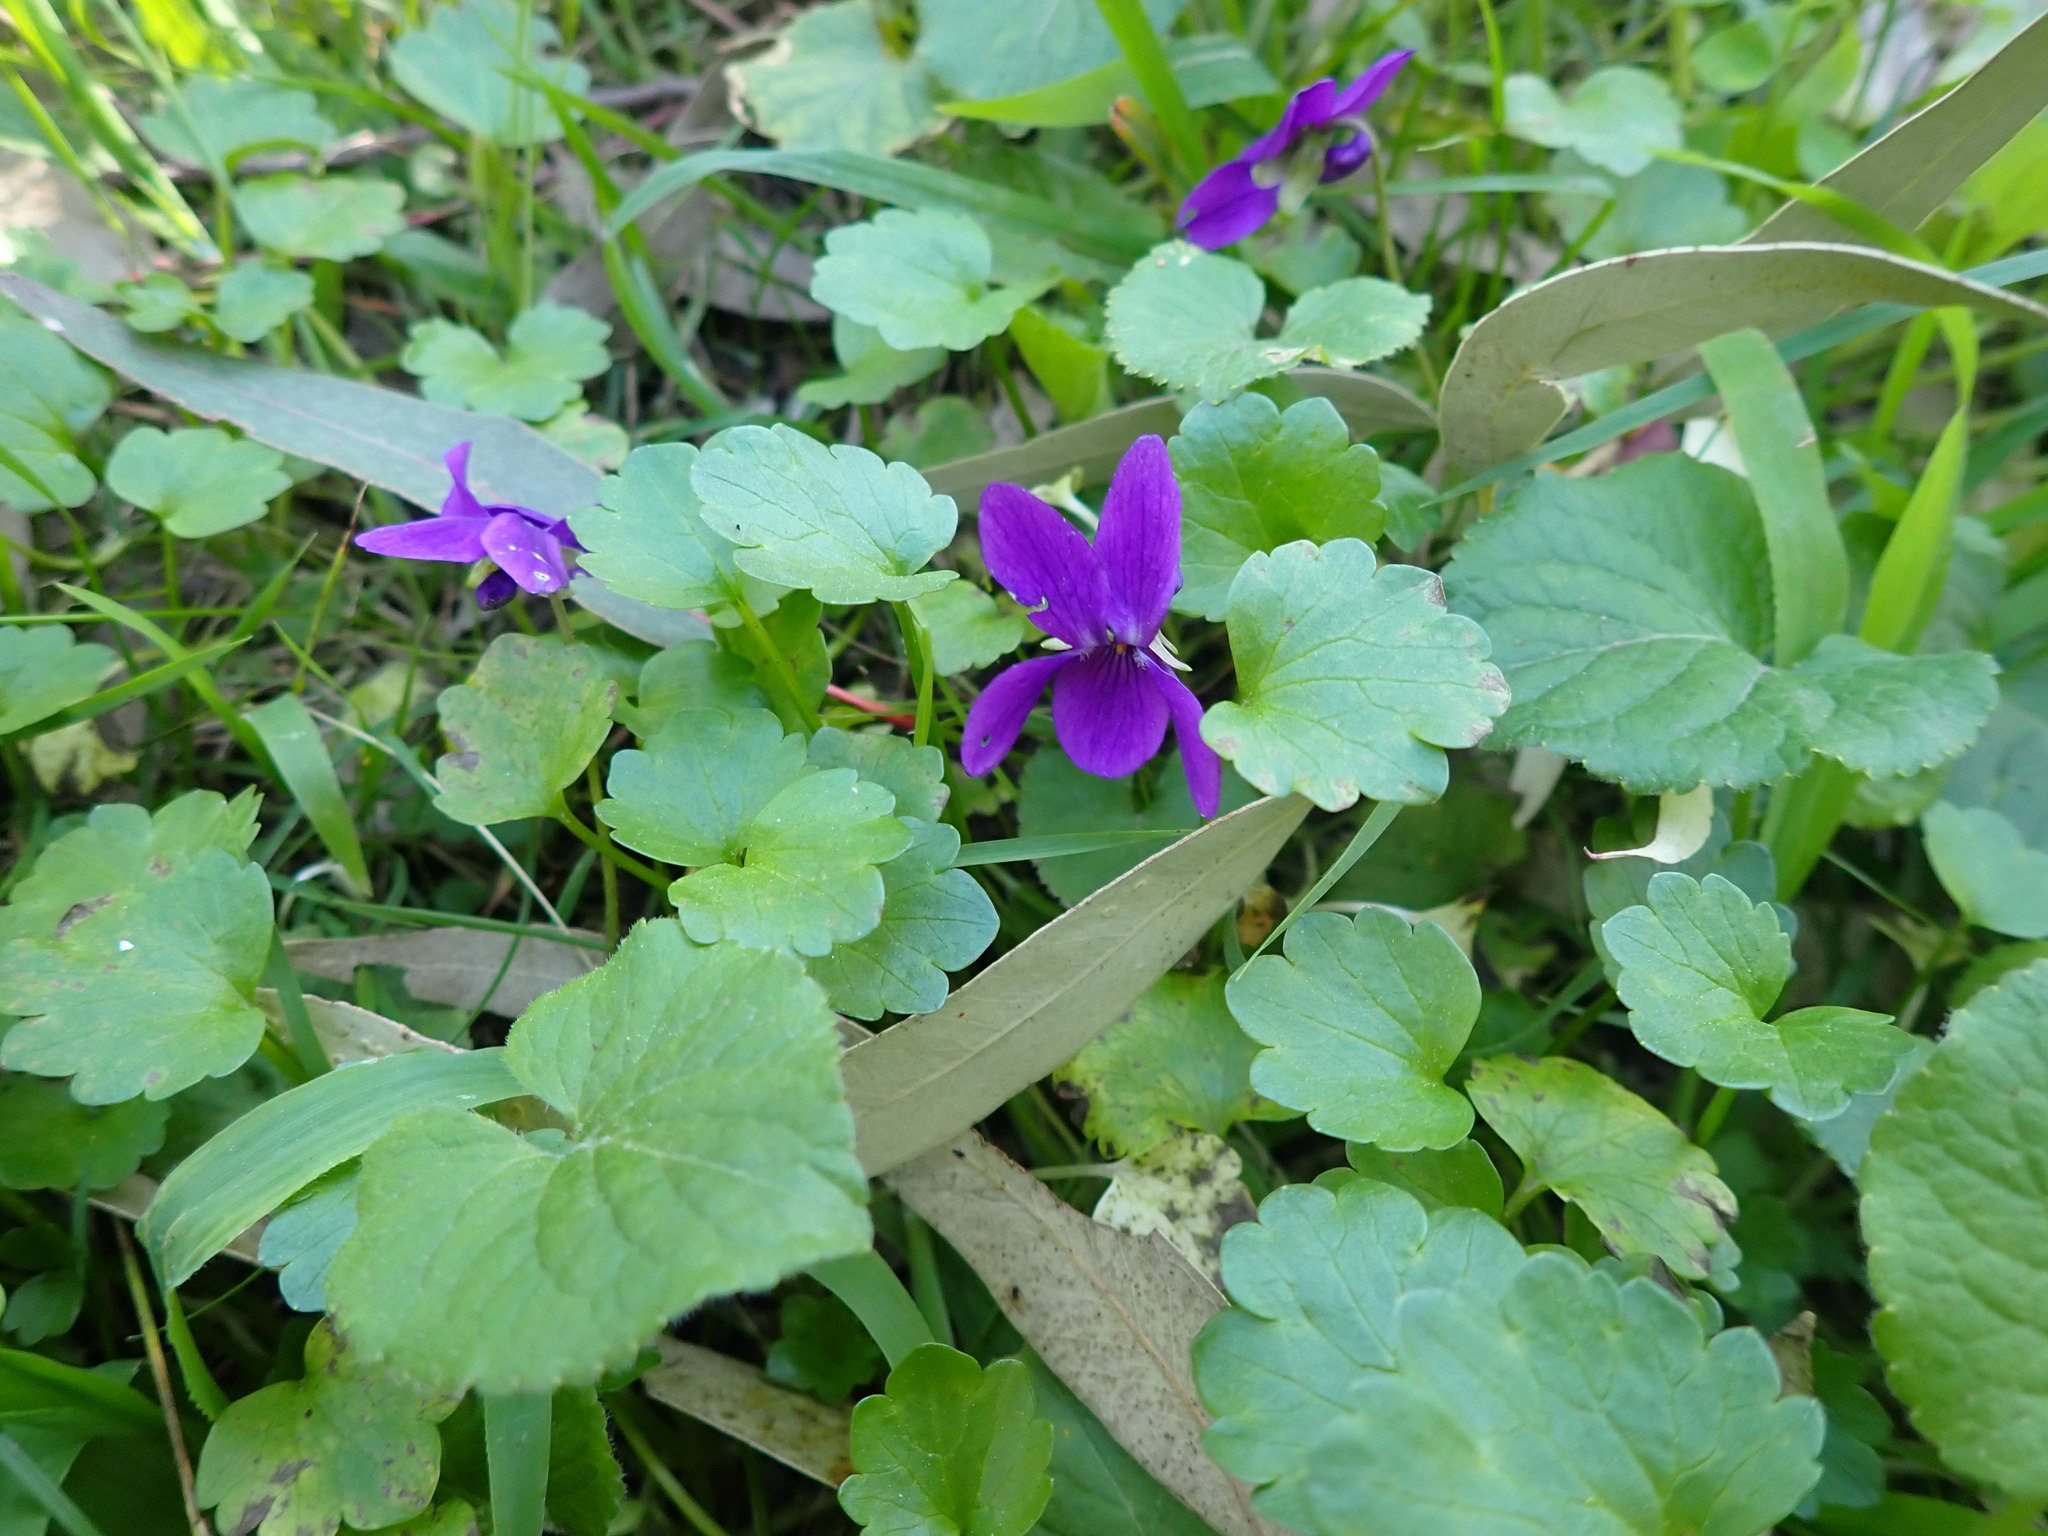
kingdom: Plantae
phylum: Tracheophyta
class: Magnoliopsida
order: Malpighiales
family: Violaceae
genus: Viola
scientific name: Viola odorata
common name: Sweet violet
